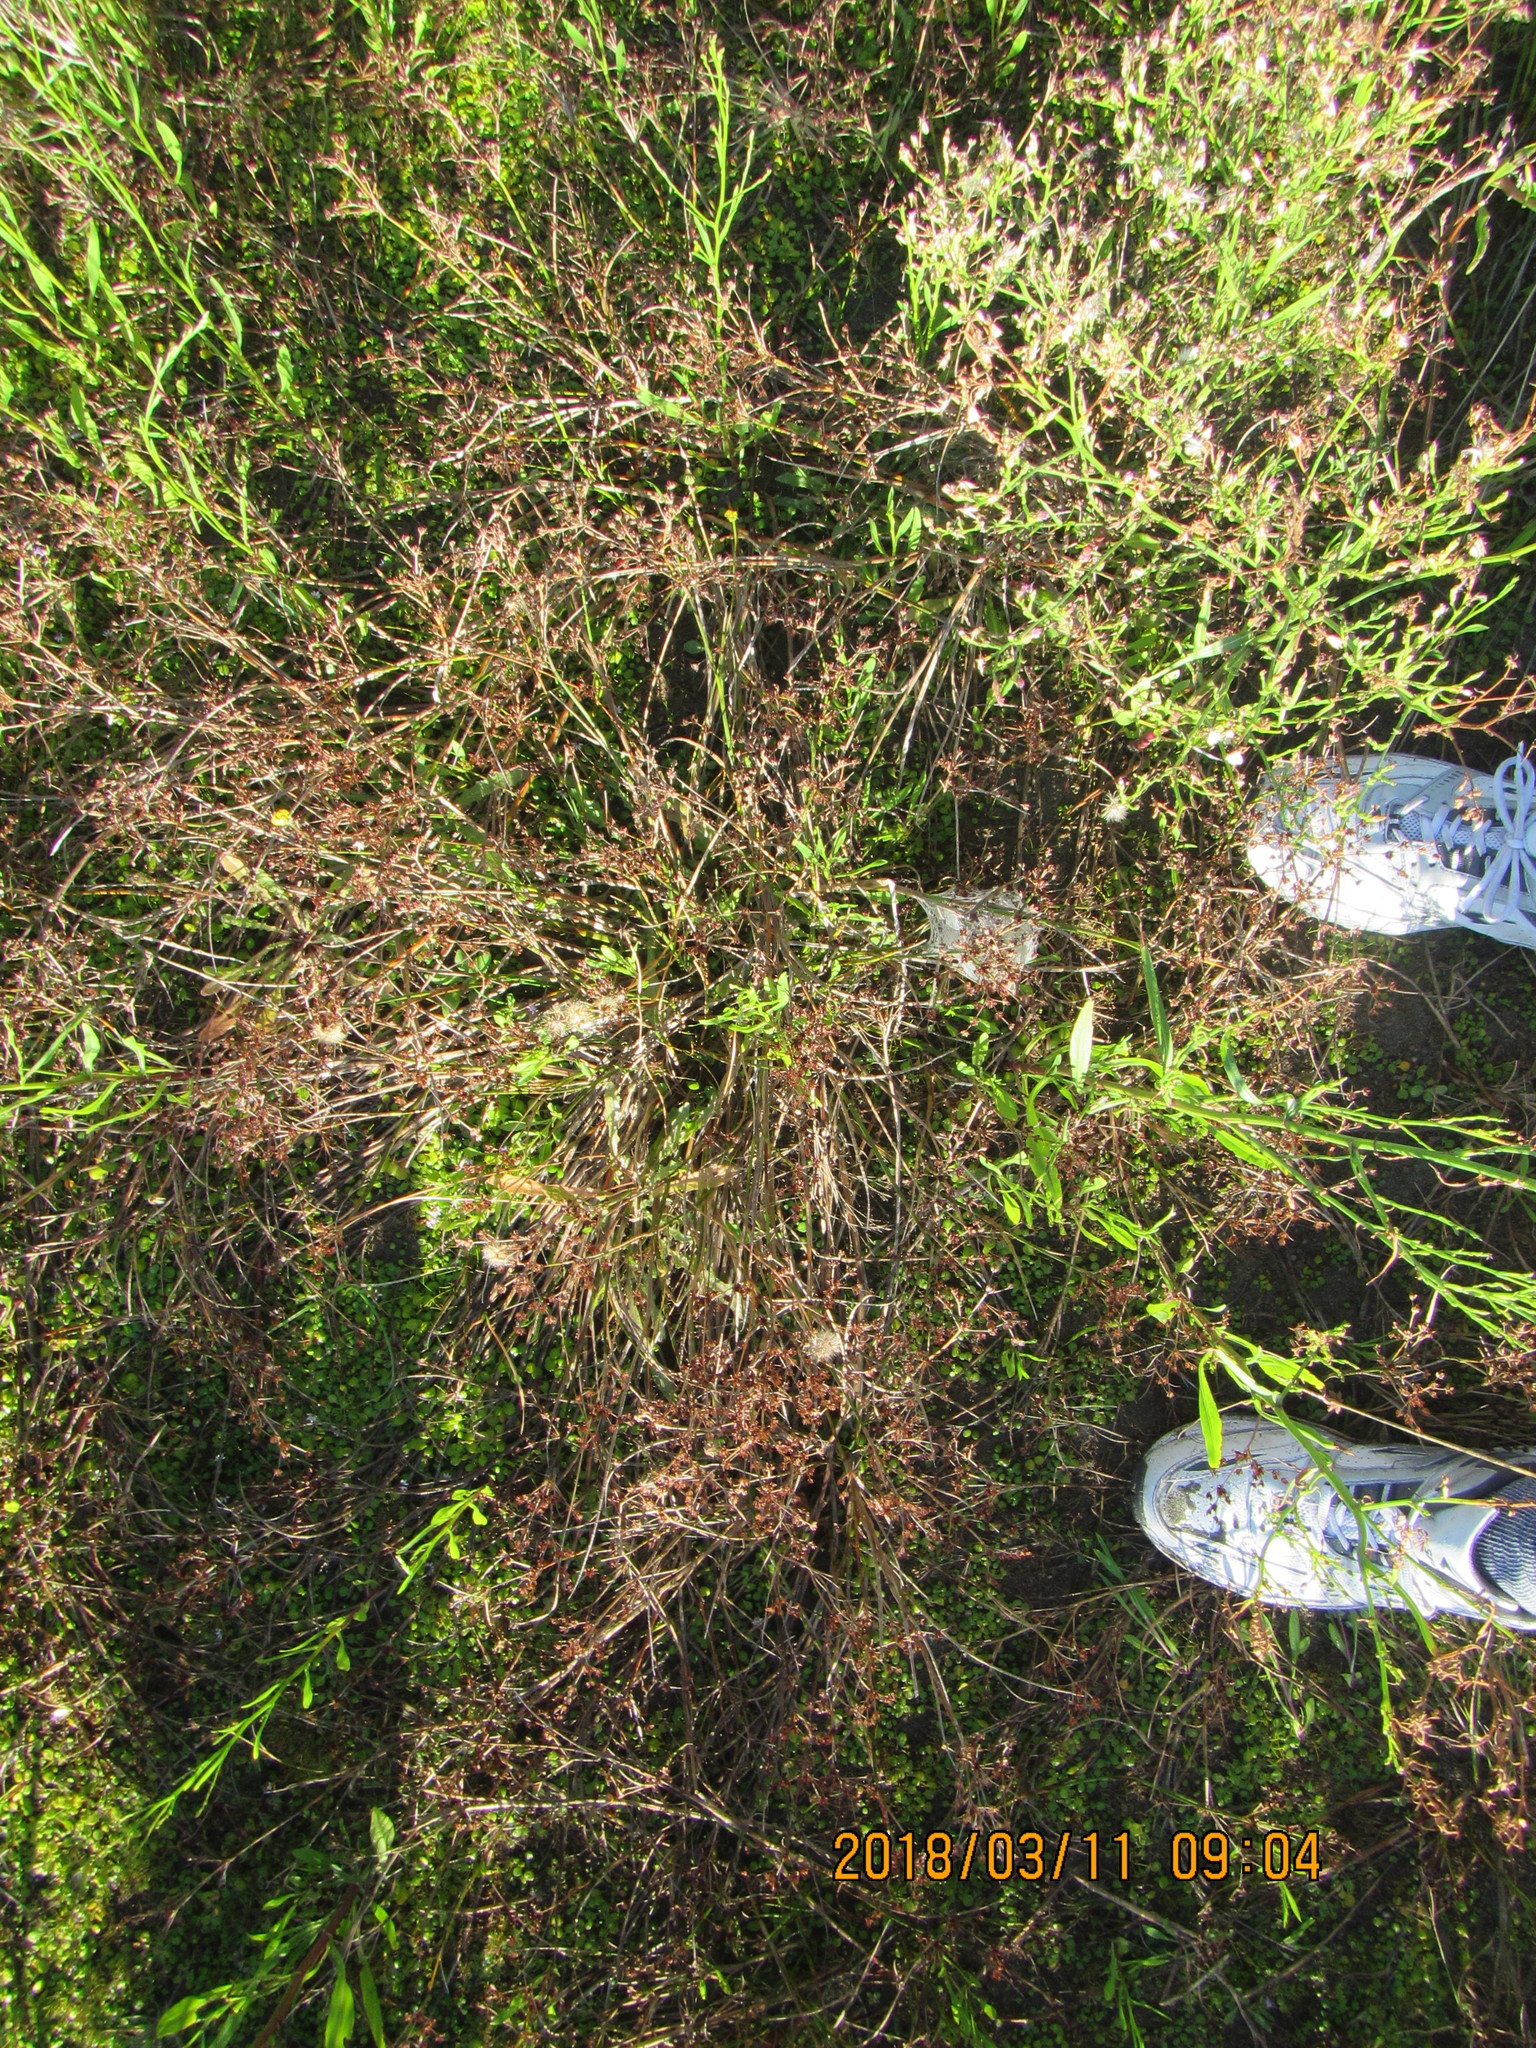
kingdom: Plantae
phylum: Tracheophyta
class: Liliopsida
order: Poales
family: Juncaceae
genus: Juncus
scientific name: Juncus articulatus
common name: Jointed rush
